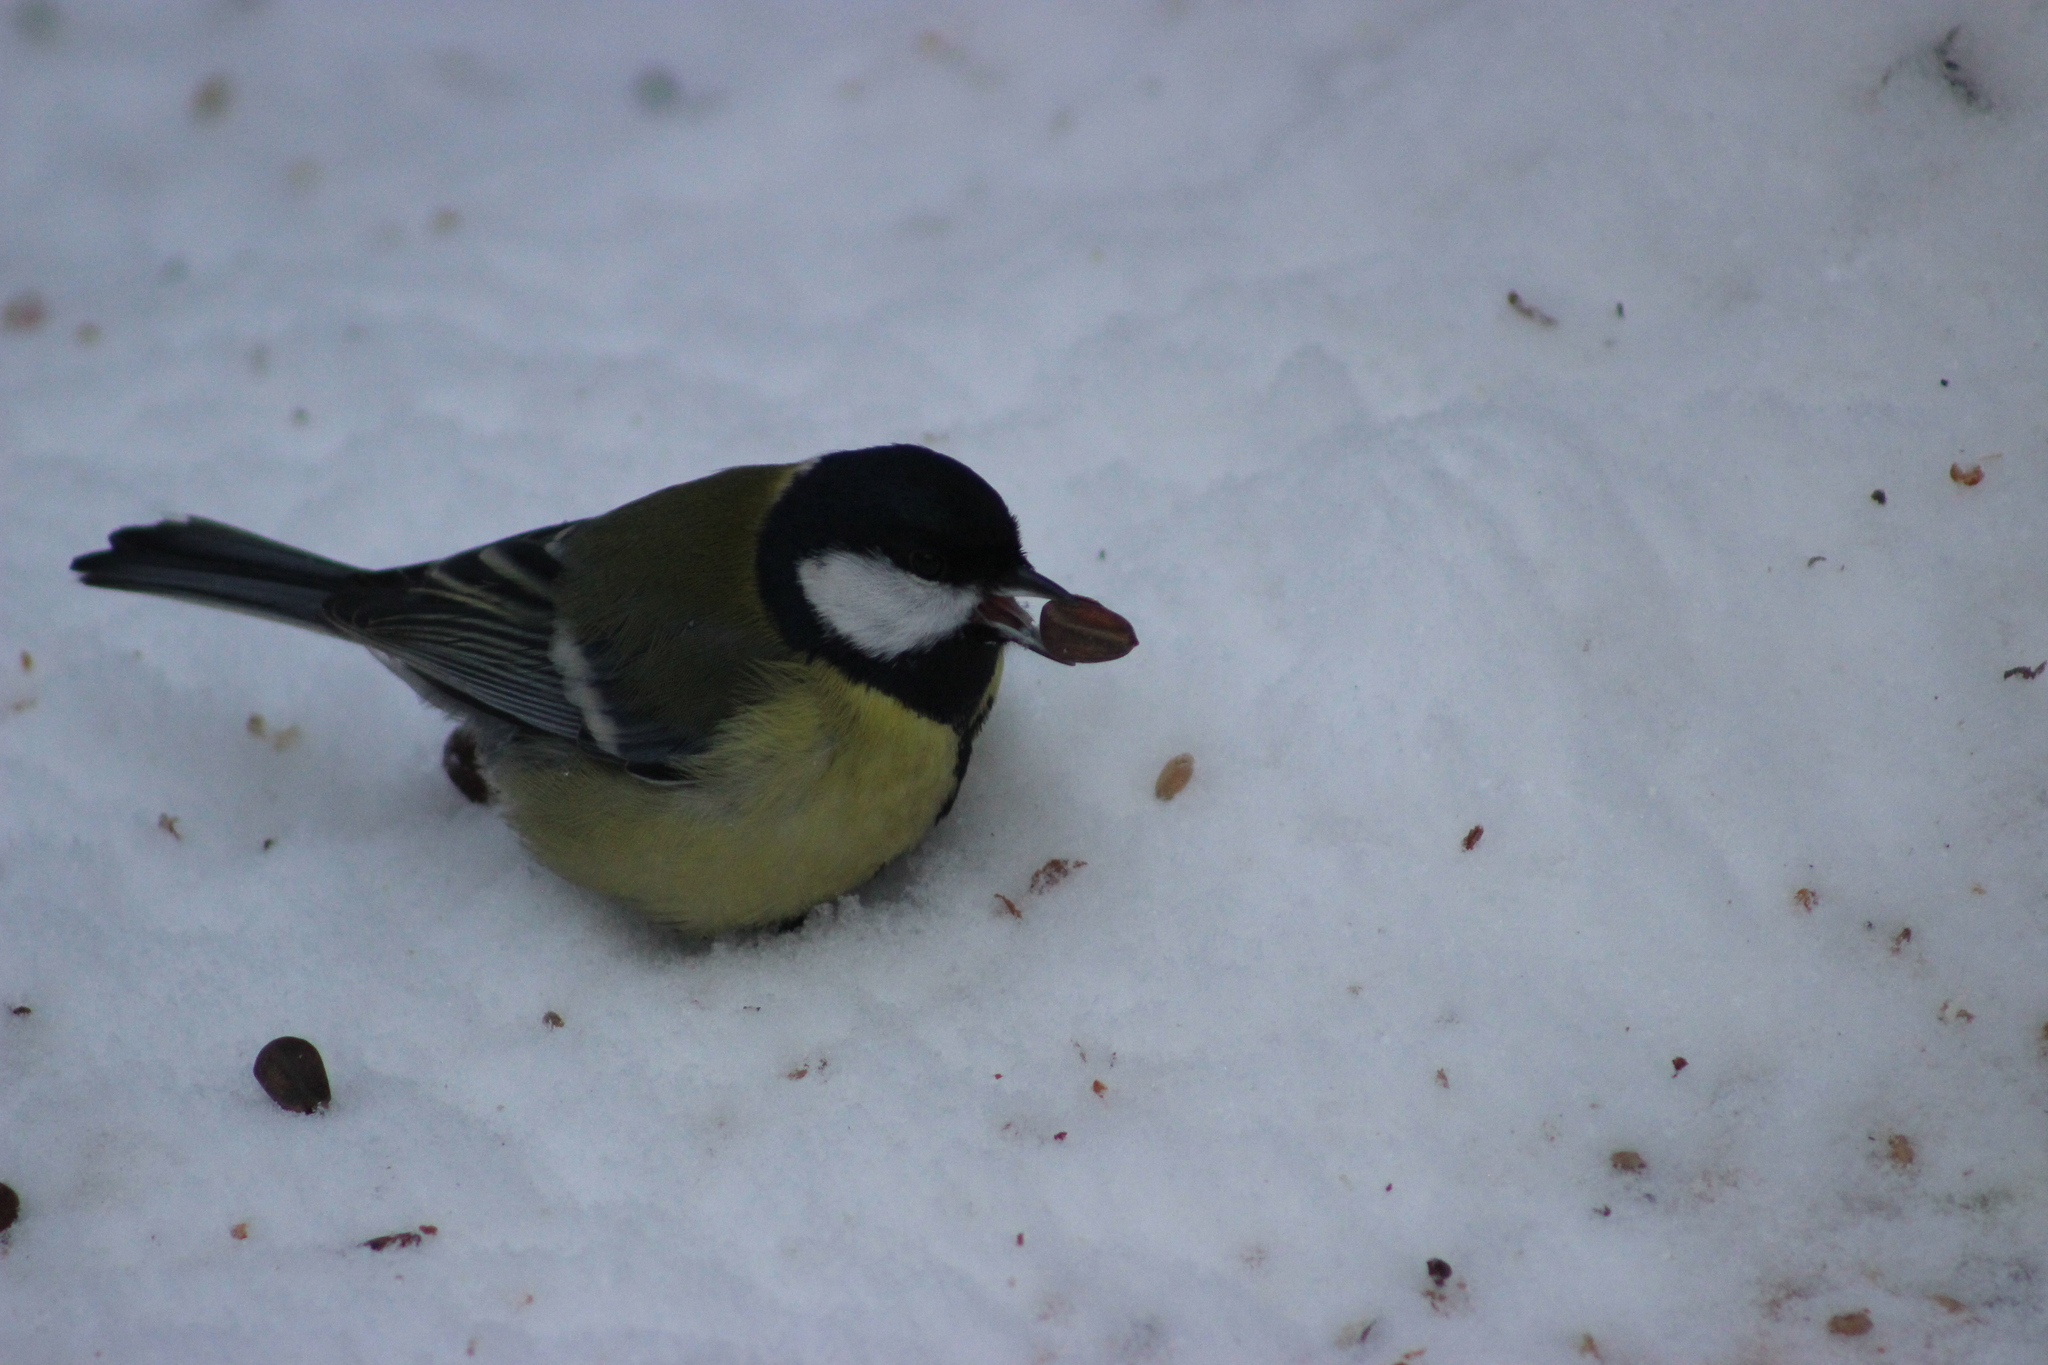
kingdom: Animalia
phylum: Chordata
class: Aves
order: Passeriformes
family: Paridae
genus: Parus
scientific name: Parus major
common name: Great tit
